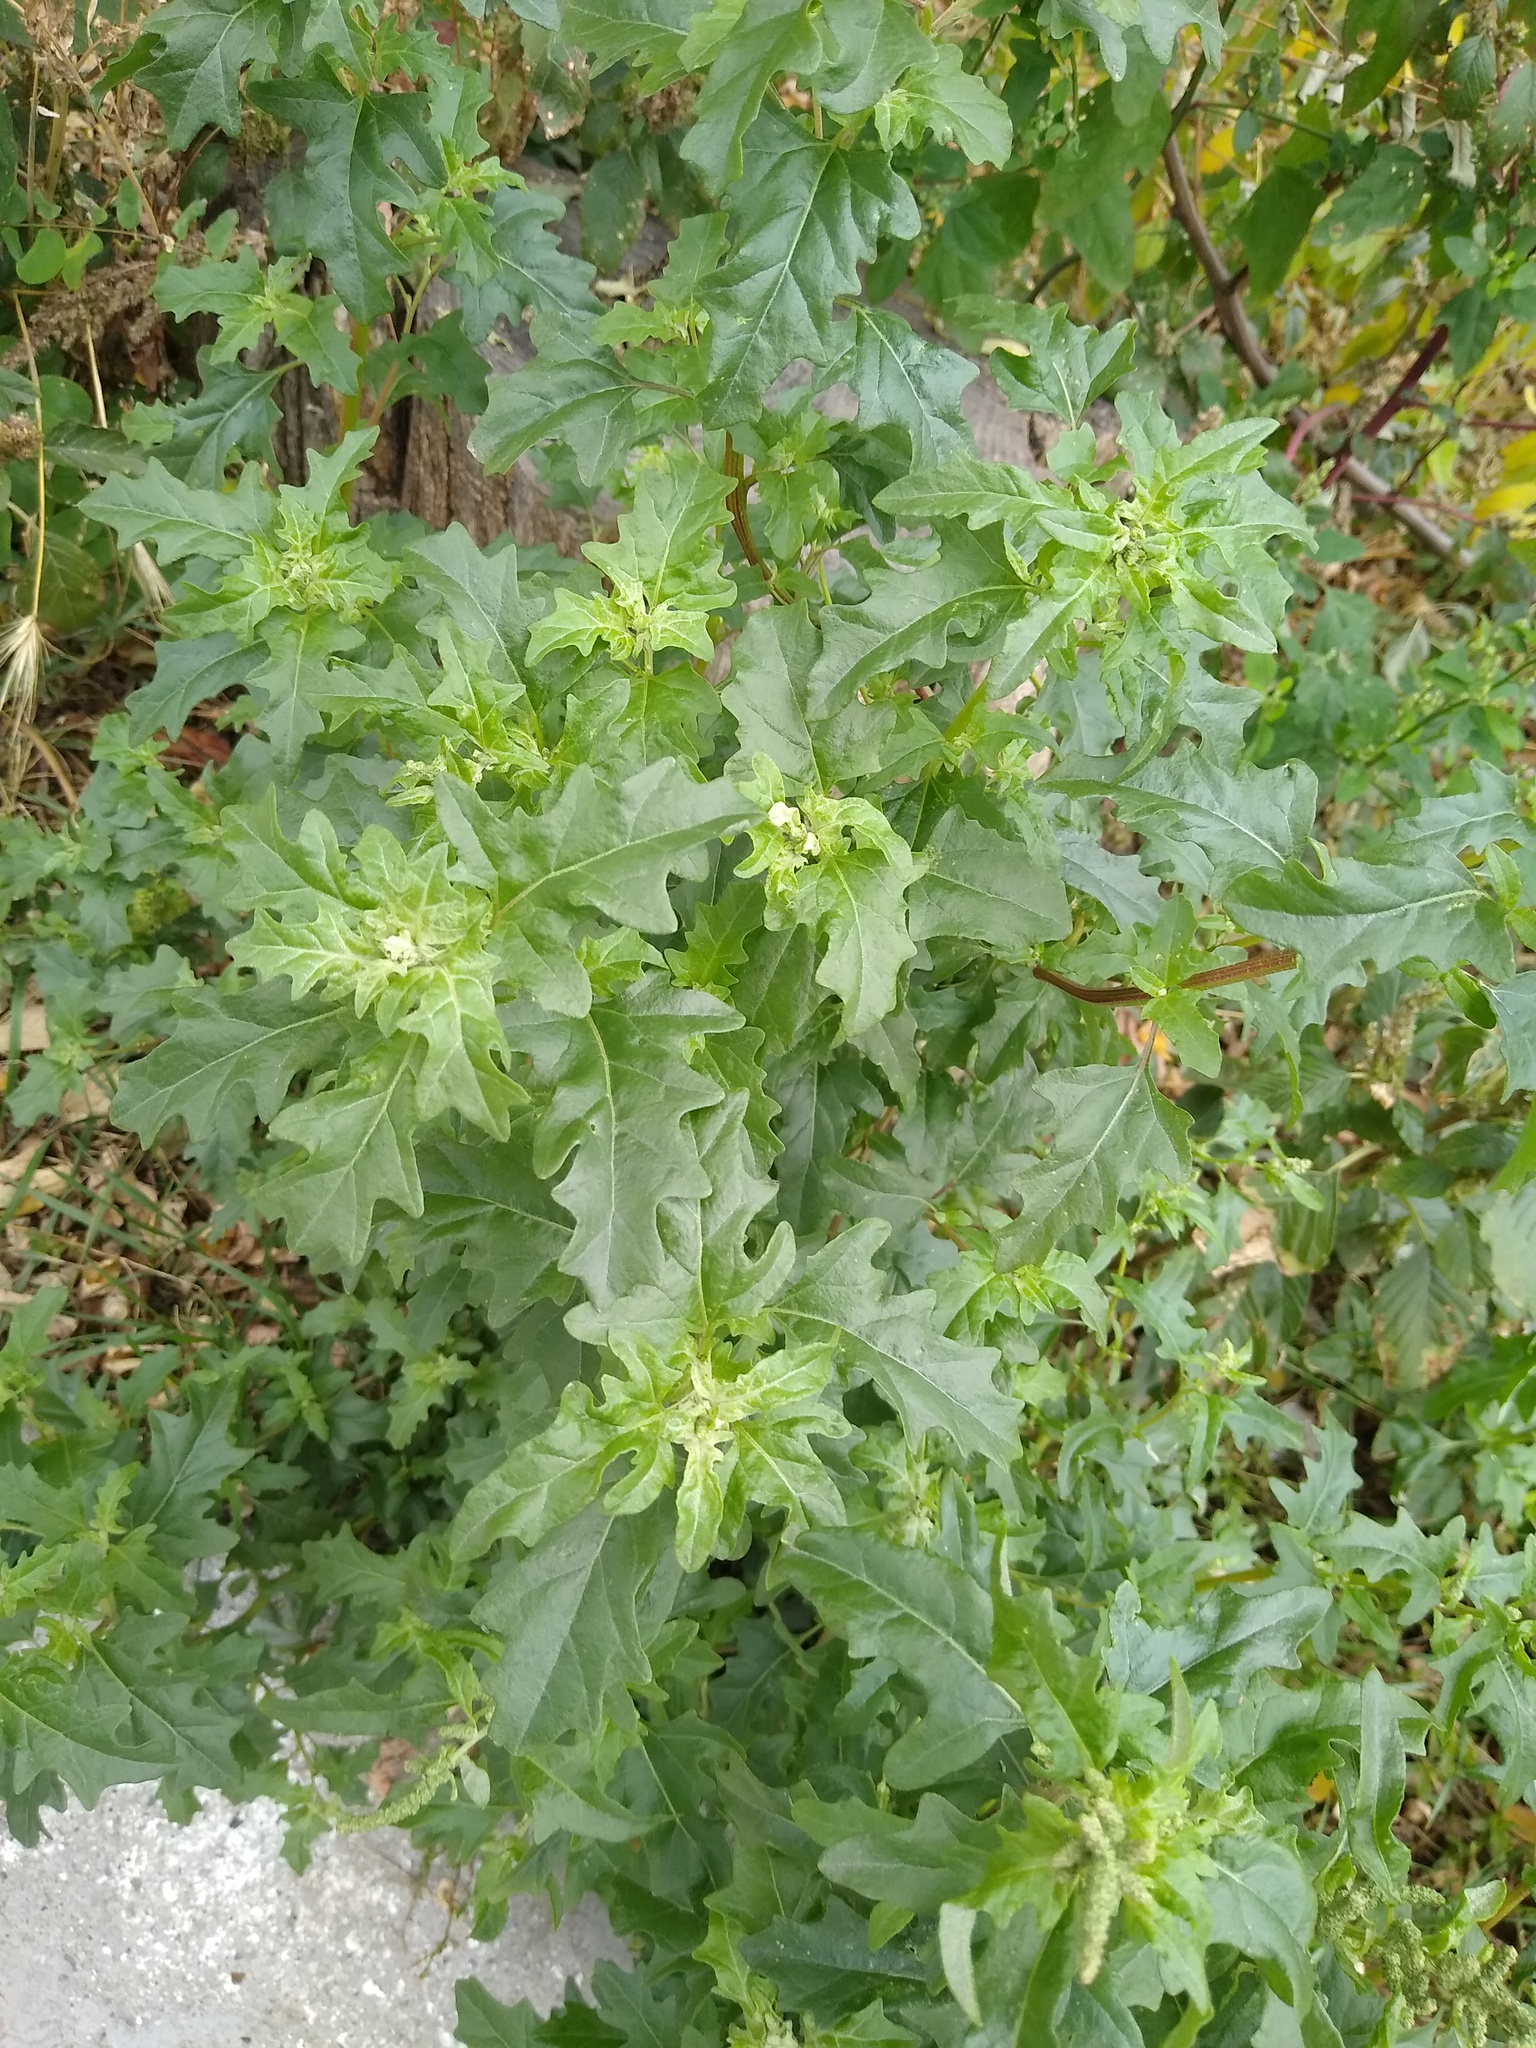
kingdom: Plantae
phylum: Tracheophyta
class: Magnoliopsida
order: Caryophyllales
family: Amaranthaceae
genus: Atriplex
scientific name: Atriplex tatarica
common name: Tatarian orache
